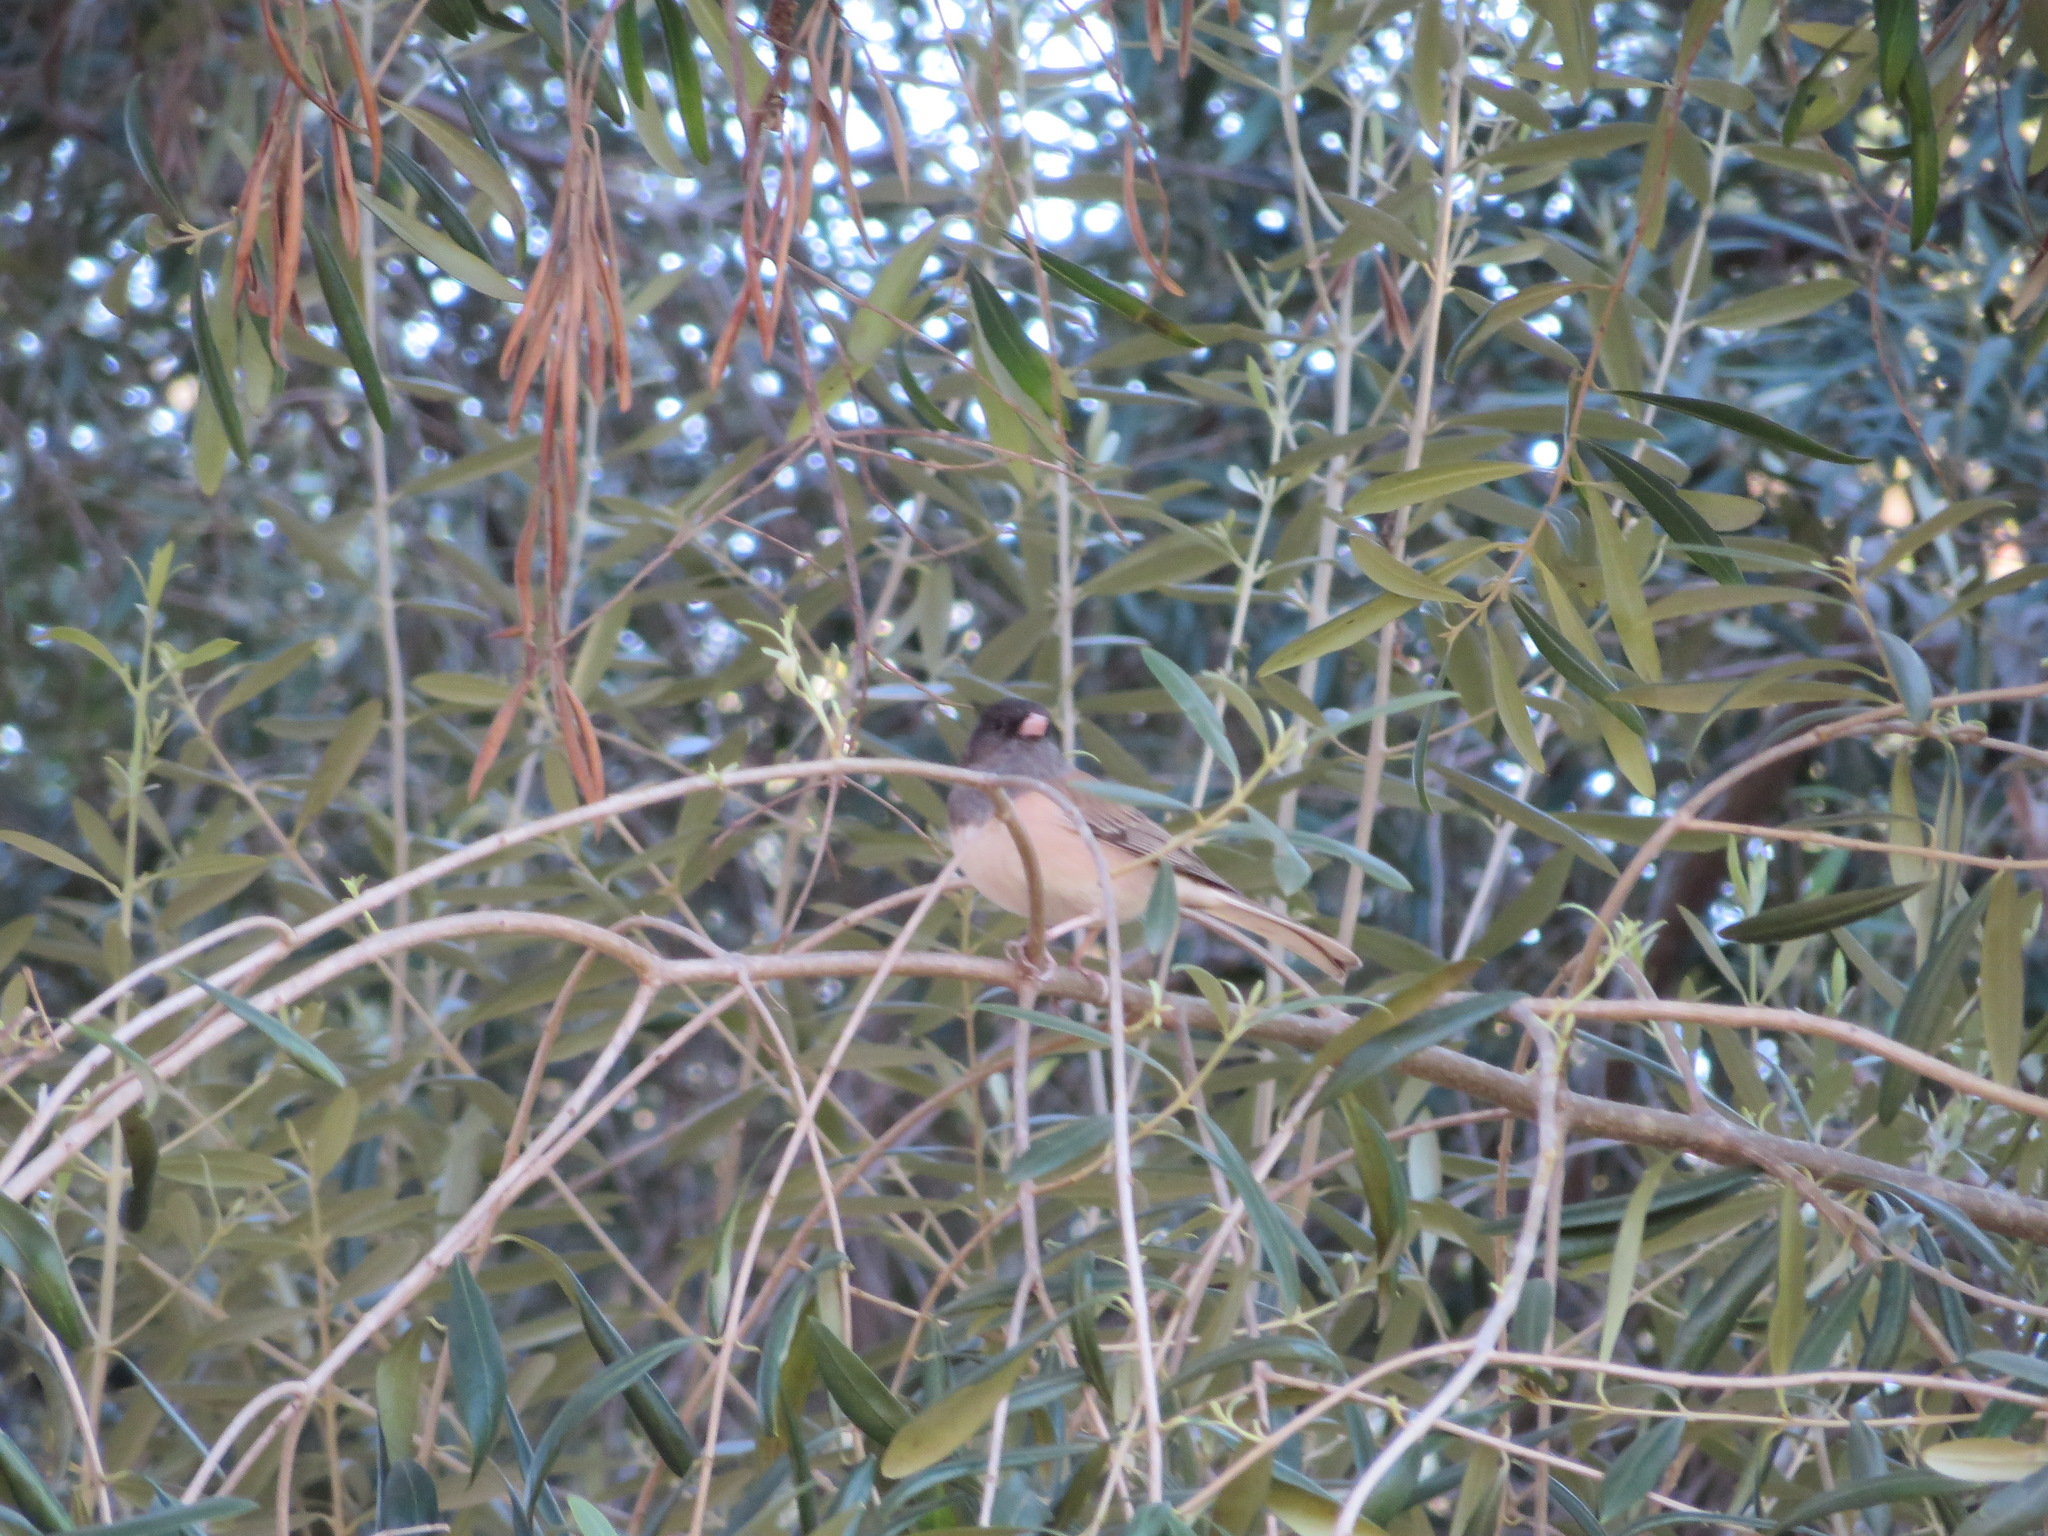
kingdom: Animalia
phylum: Chordata
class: Aves
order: Passeriformes
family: Passerellidae
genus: Junco
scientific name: Junco hyemalis
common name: Dark-eyed junco
